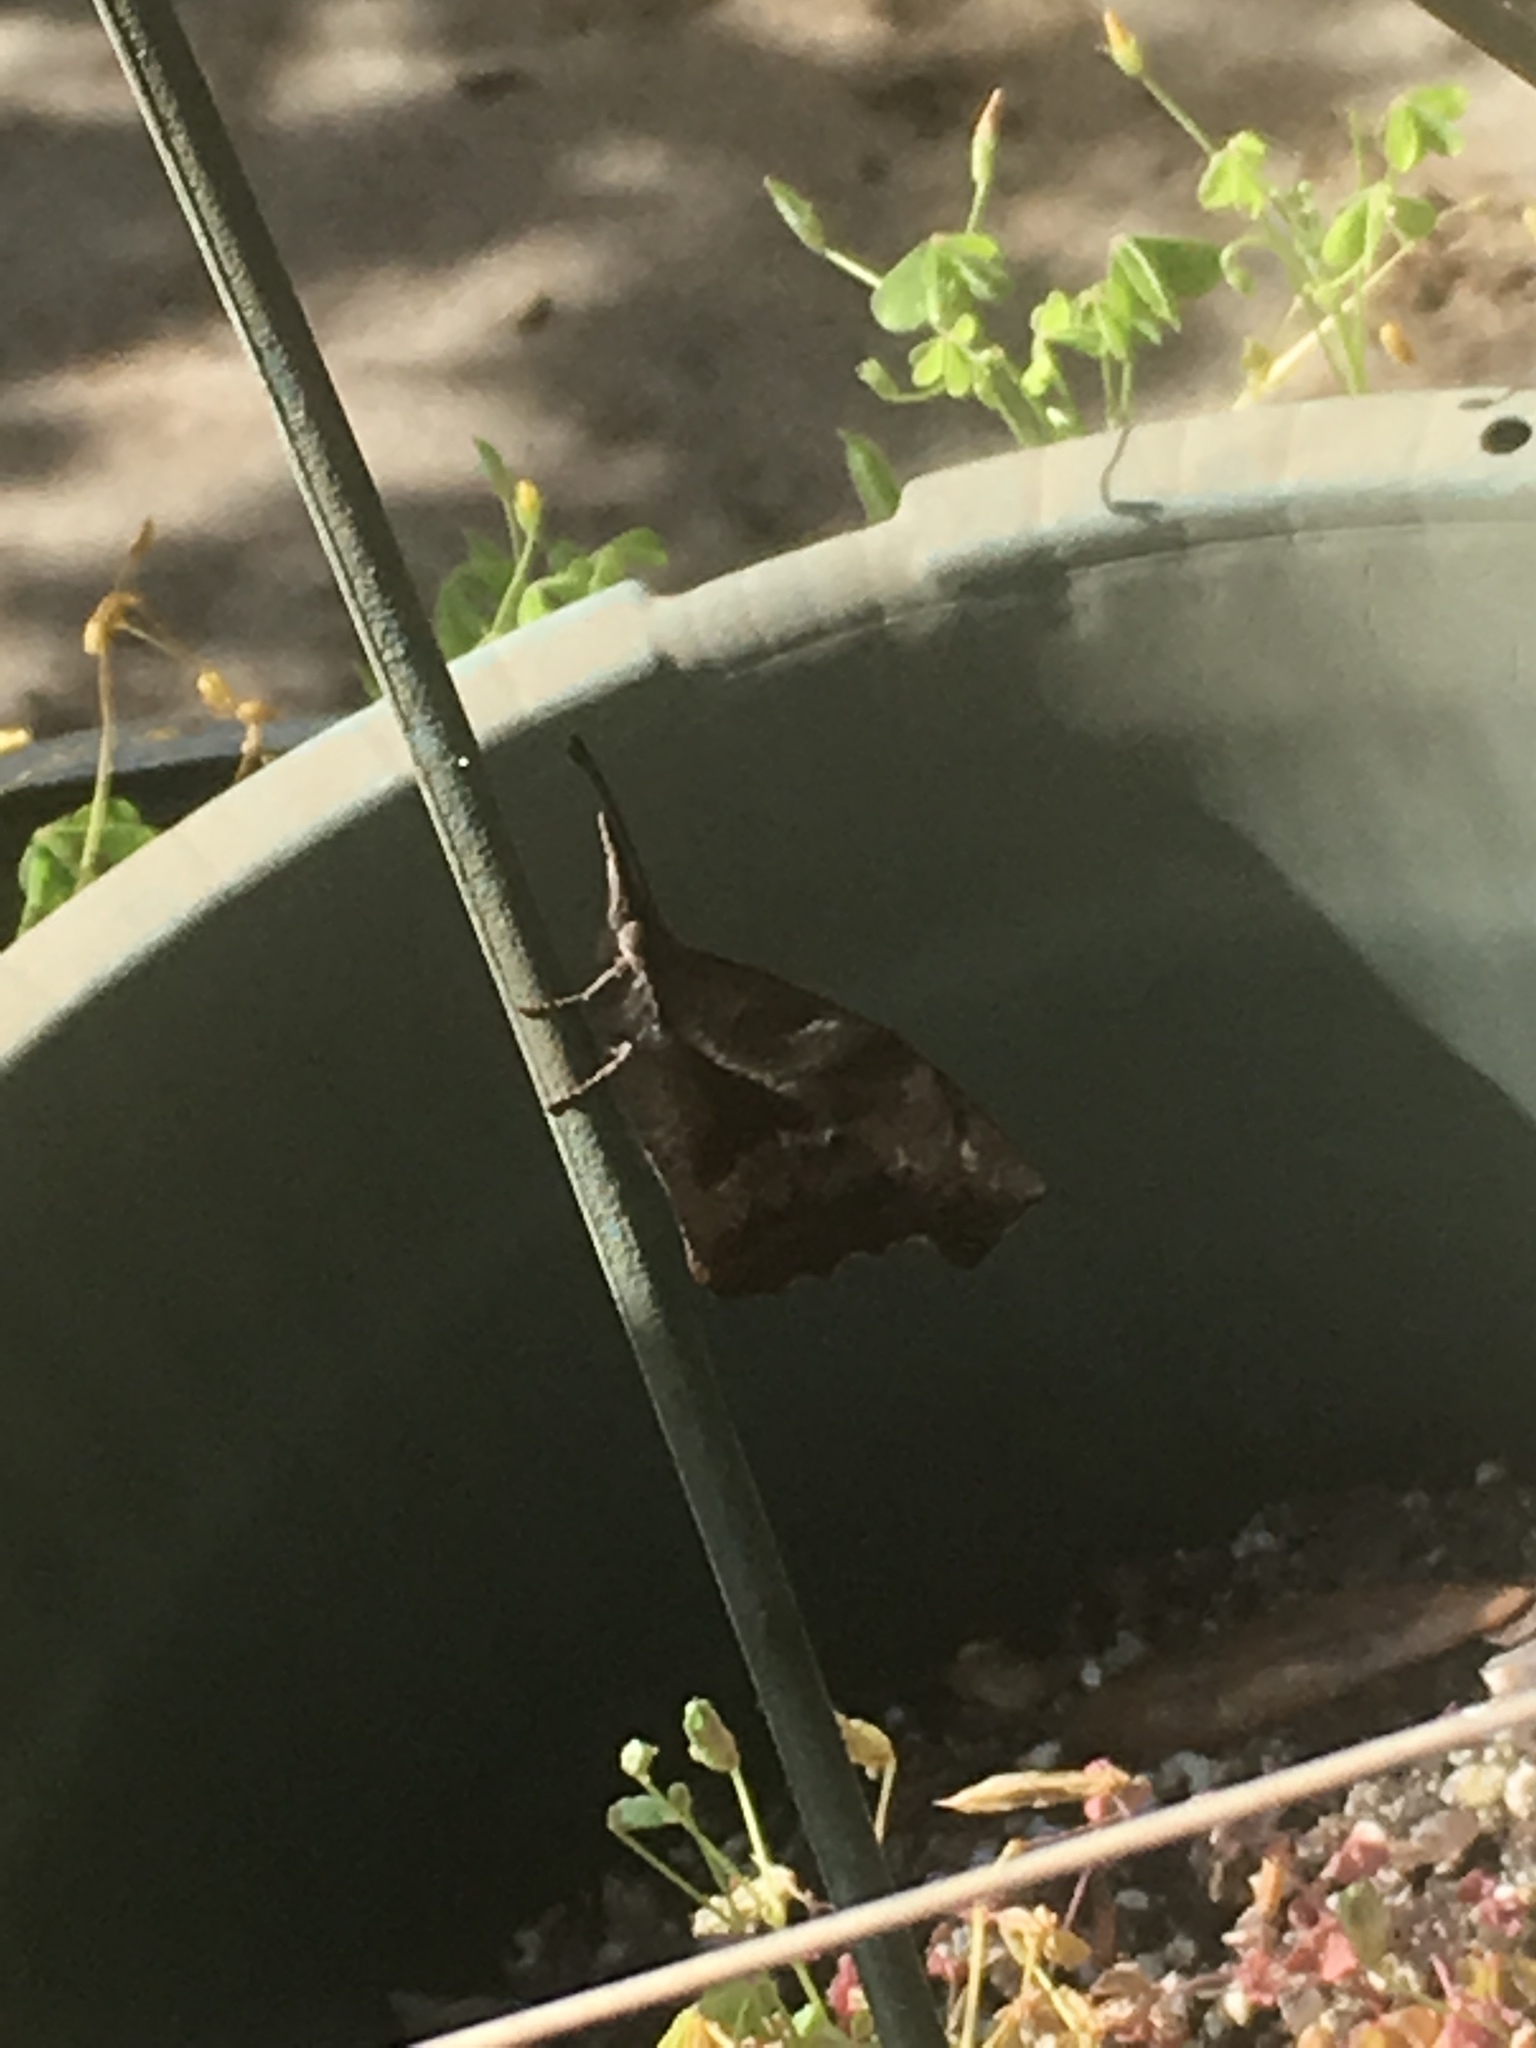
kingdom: Animalia
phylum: Arthropoda
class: Insecta
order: Lepidoptera
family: Nymphalidae
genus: Libytheana
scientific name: Libytheana carinenta
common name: American snout
